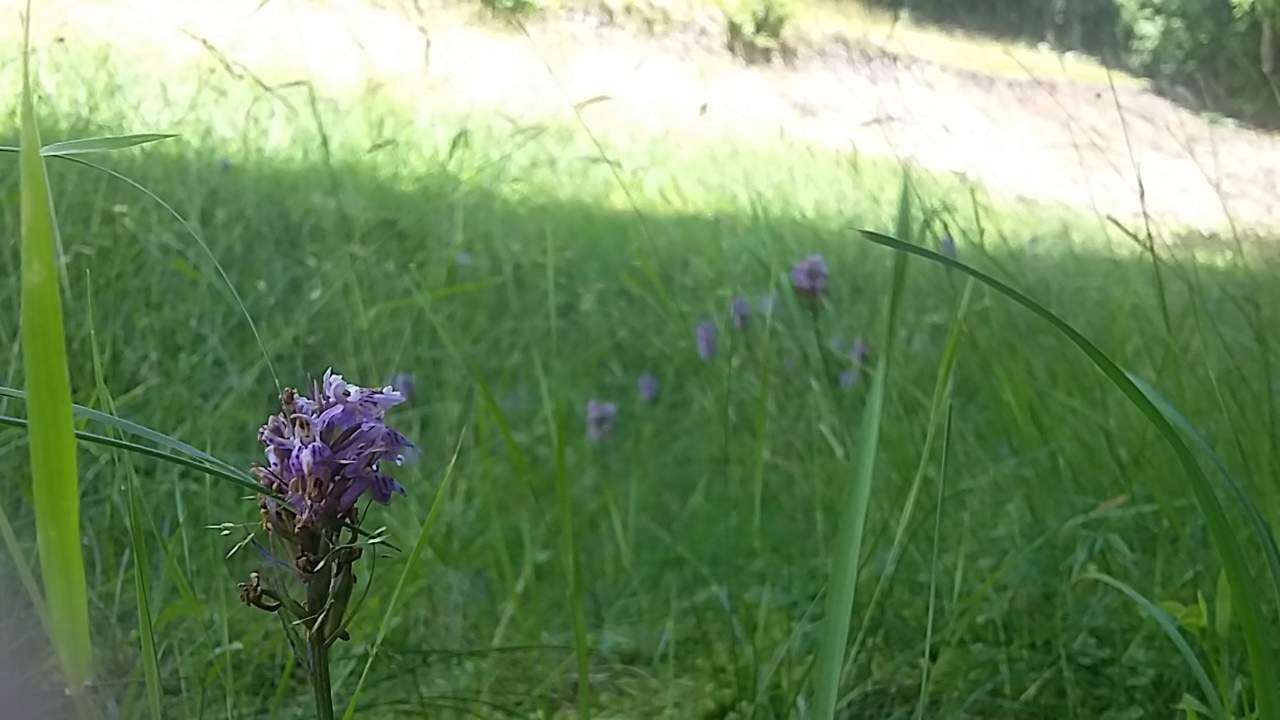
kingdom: Plantae
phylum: Tracheophyta
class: Liliopsida
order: Asparagales
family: Orchidaceae
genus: Dactylorhiza
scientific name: Dactylorhiza maculata
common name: Heath spotted-orchid
